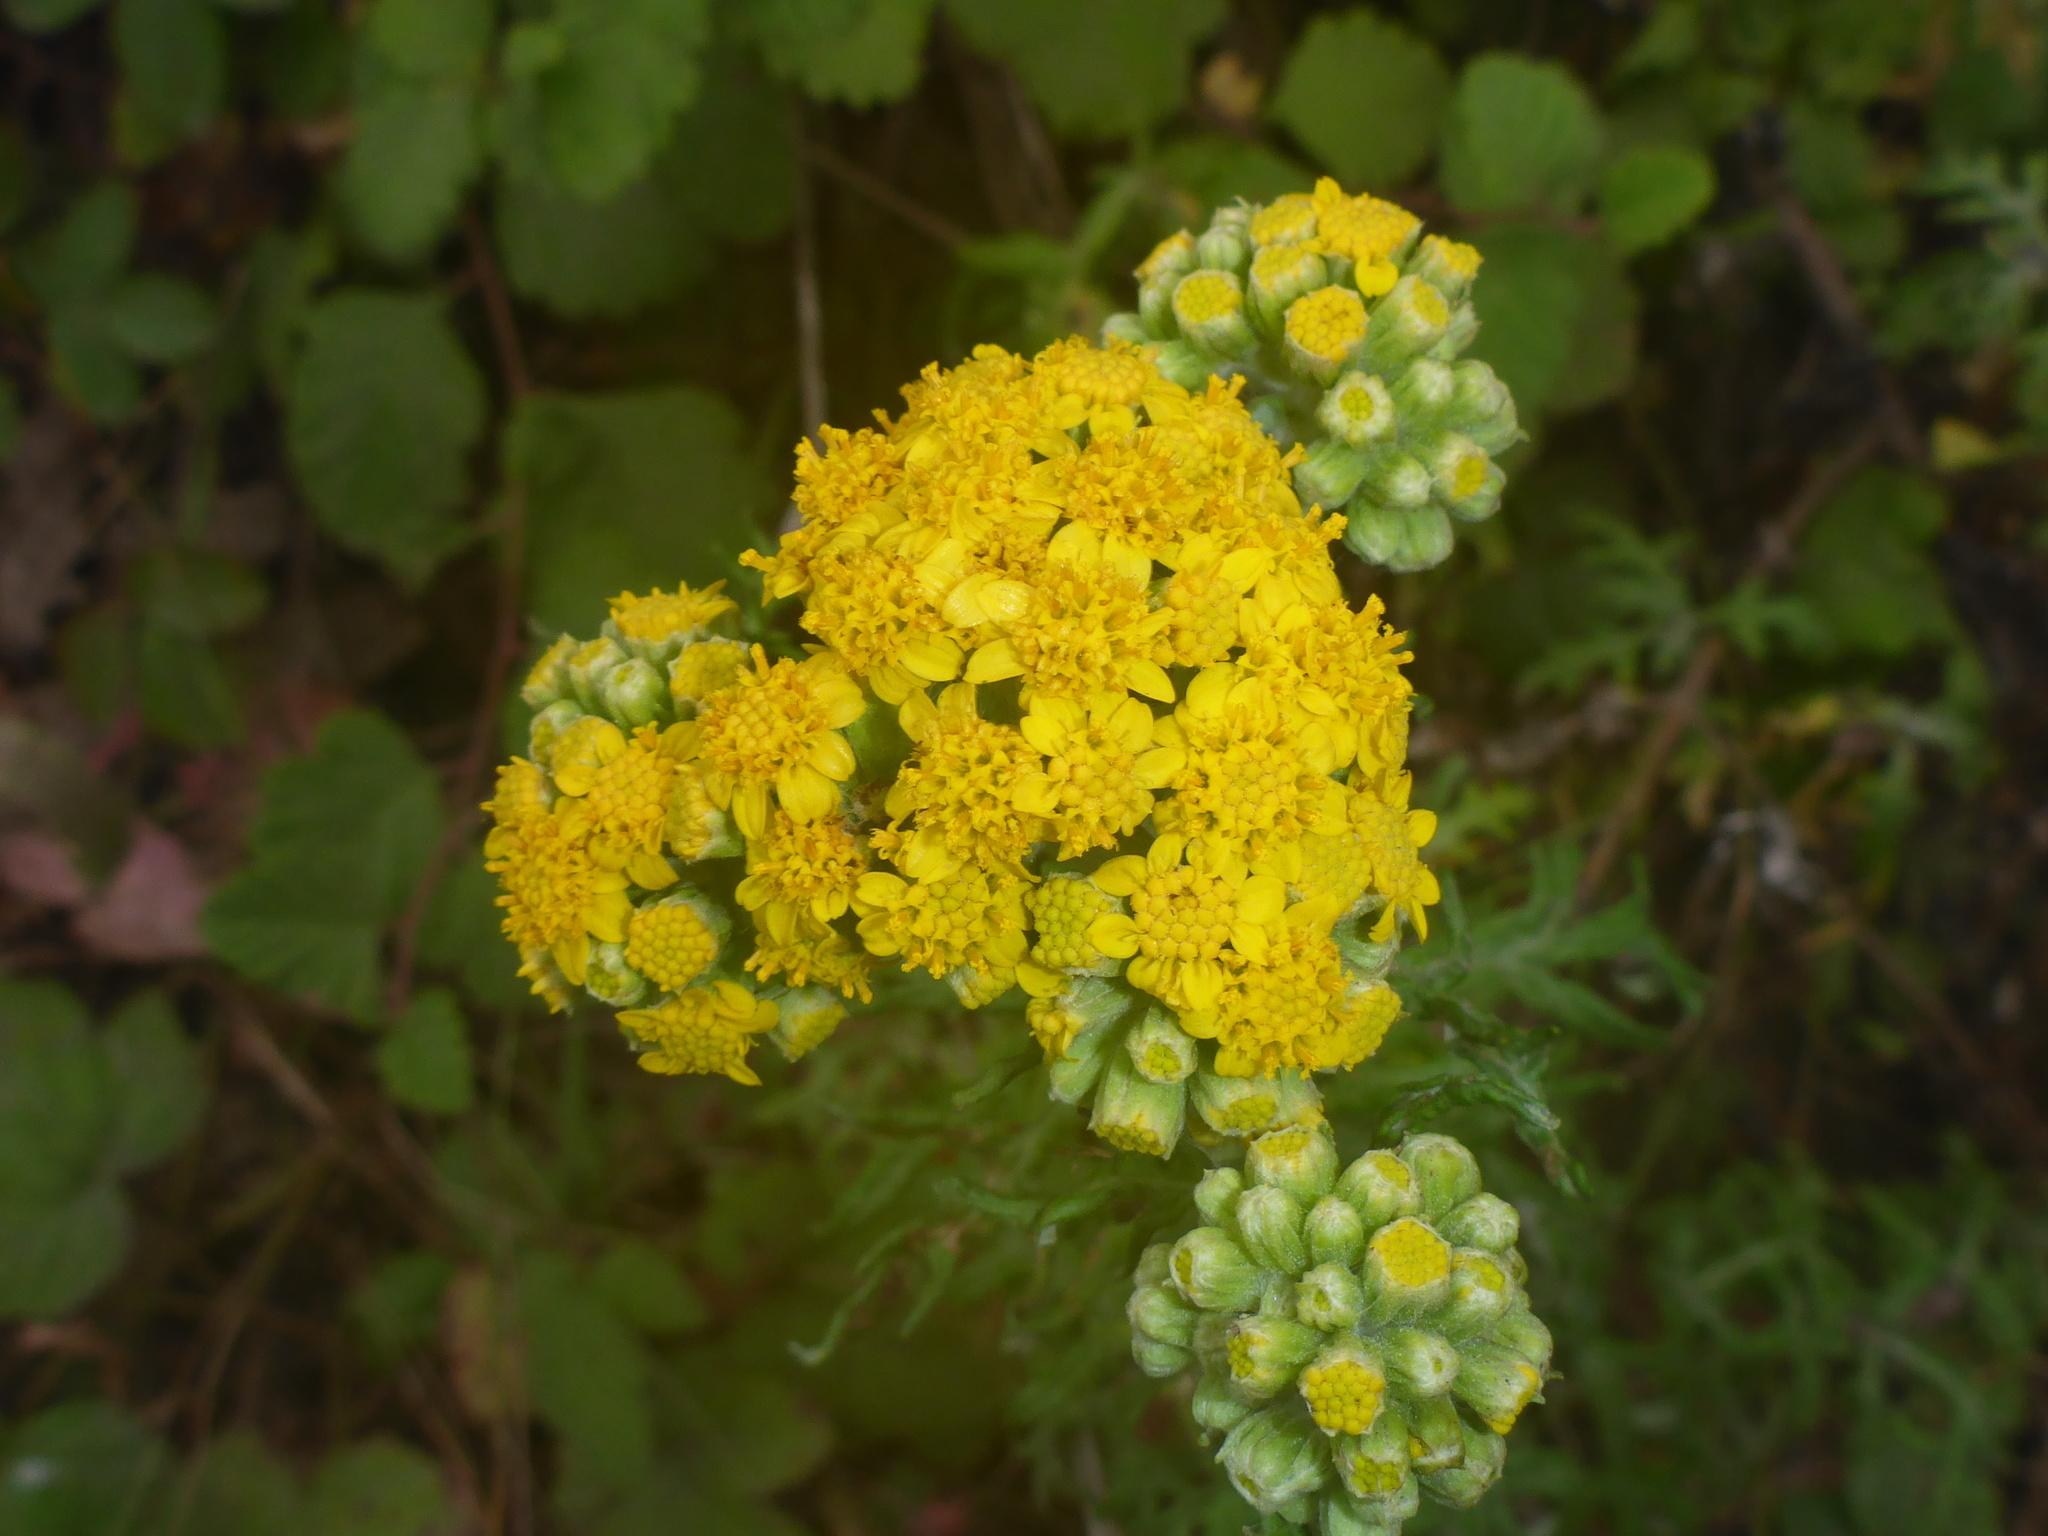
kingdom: Plantae
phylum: Tracheophyta
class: Magnoliopsida
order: Asterales
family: Asteraceae
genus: Eriophyllum
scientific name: Eriophyllum staechadifolium
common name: Lizardtail
